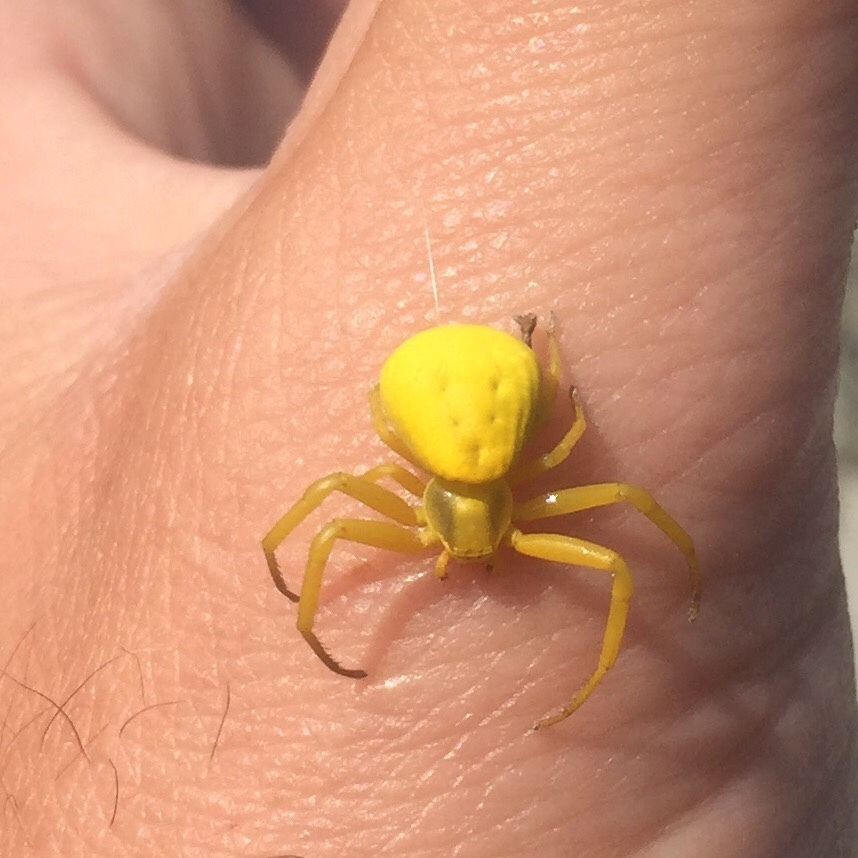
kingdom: Animalia
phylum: Arthropoda
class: Arachnida
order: Araneae
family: Thomisidae
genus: Misumenoides
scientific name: Misumenoides formosipes
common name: White-banded crab spider
